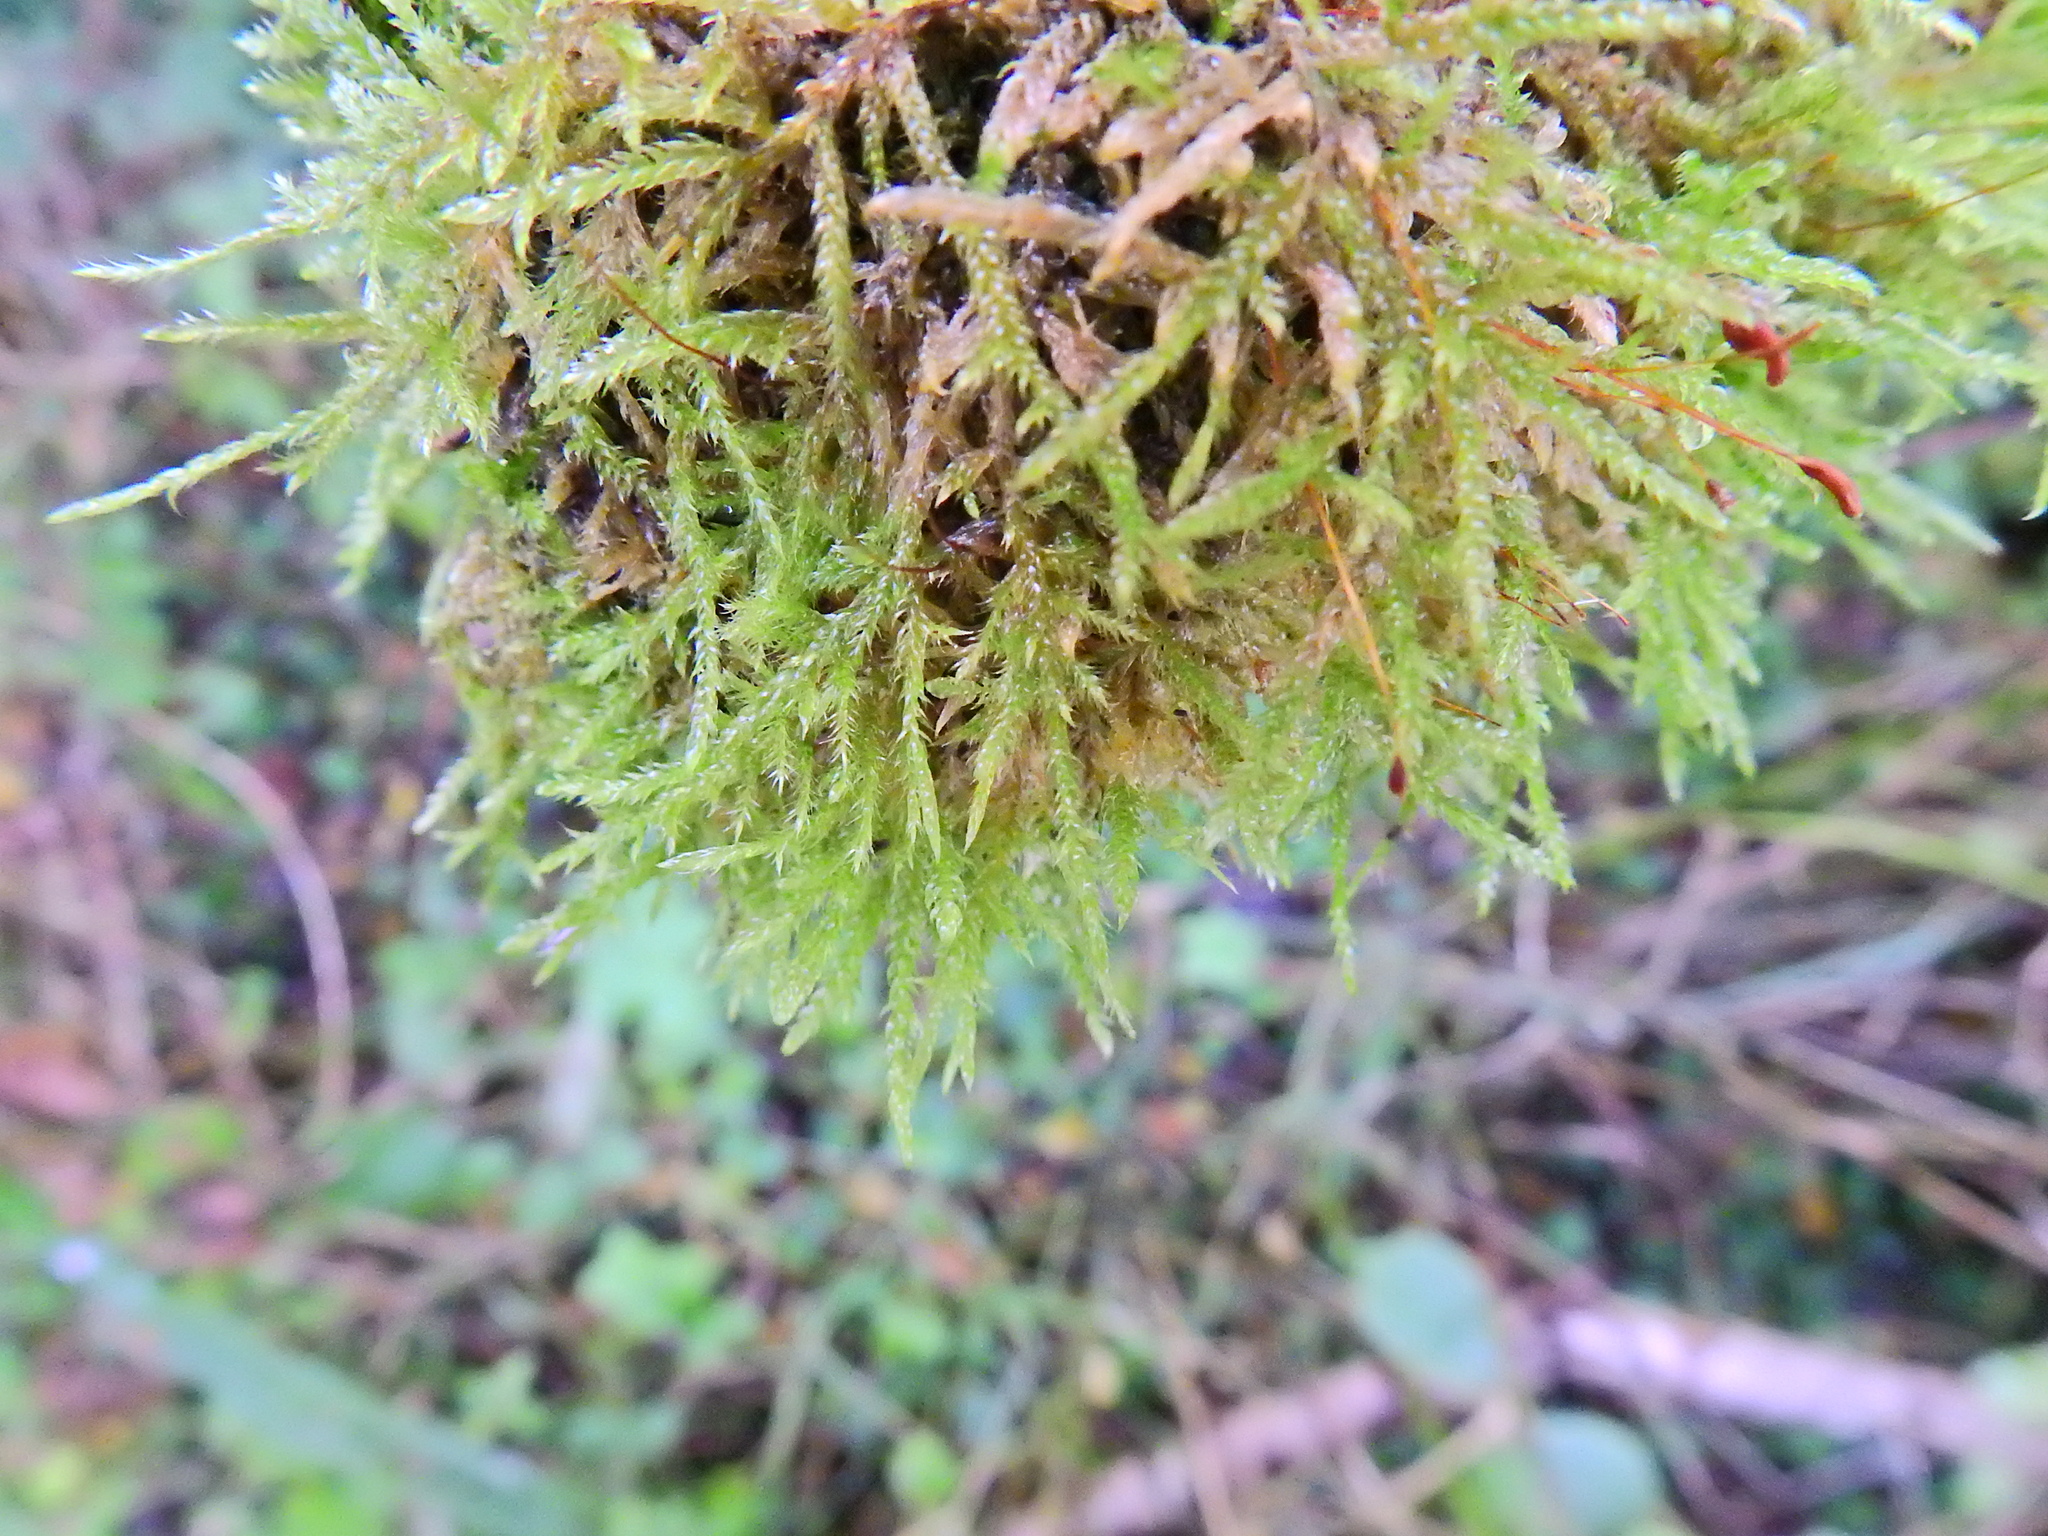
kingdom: Plantae
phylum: Bryophyta
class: Bryopsida
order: Hypnales
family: Hypnaceae
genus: Hypnum
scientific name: Hypnum cupressiforme
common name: Cypress-leaved plait-moss
